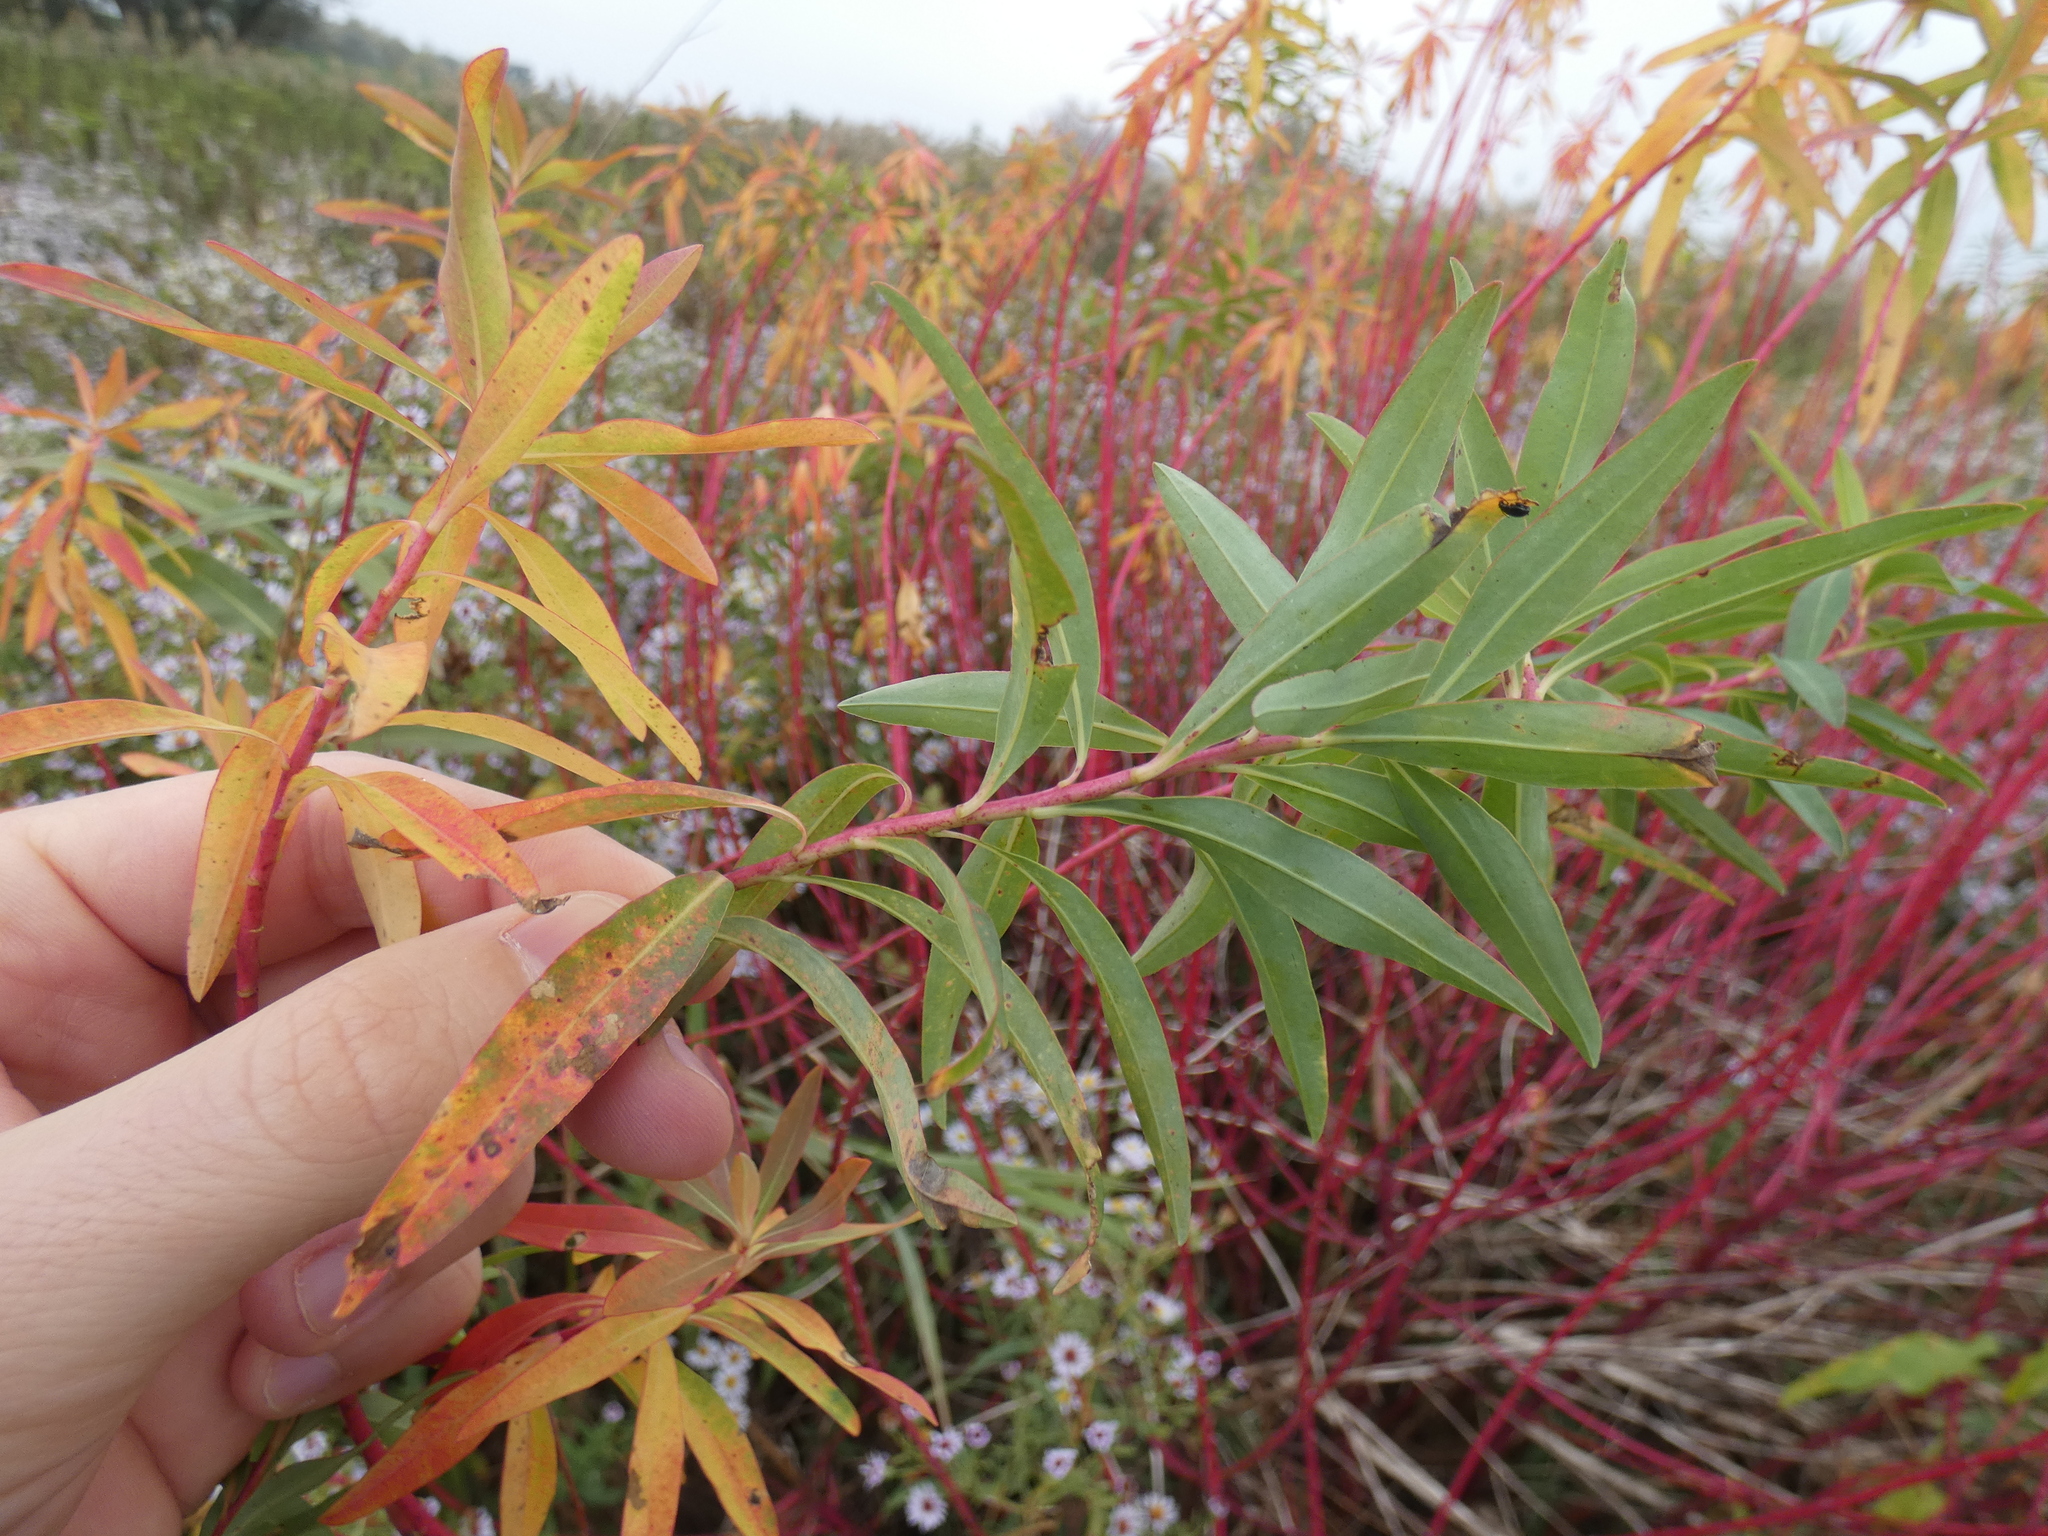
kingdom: Plantae
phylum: Tracheophyta
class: Magnoliopsida
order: Malpighiales
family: Euphorbiaceae
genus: Euphorbia
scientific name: Euphorbia palustris
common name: Marsh spurge
